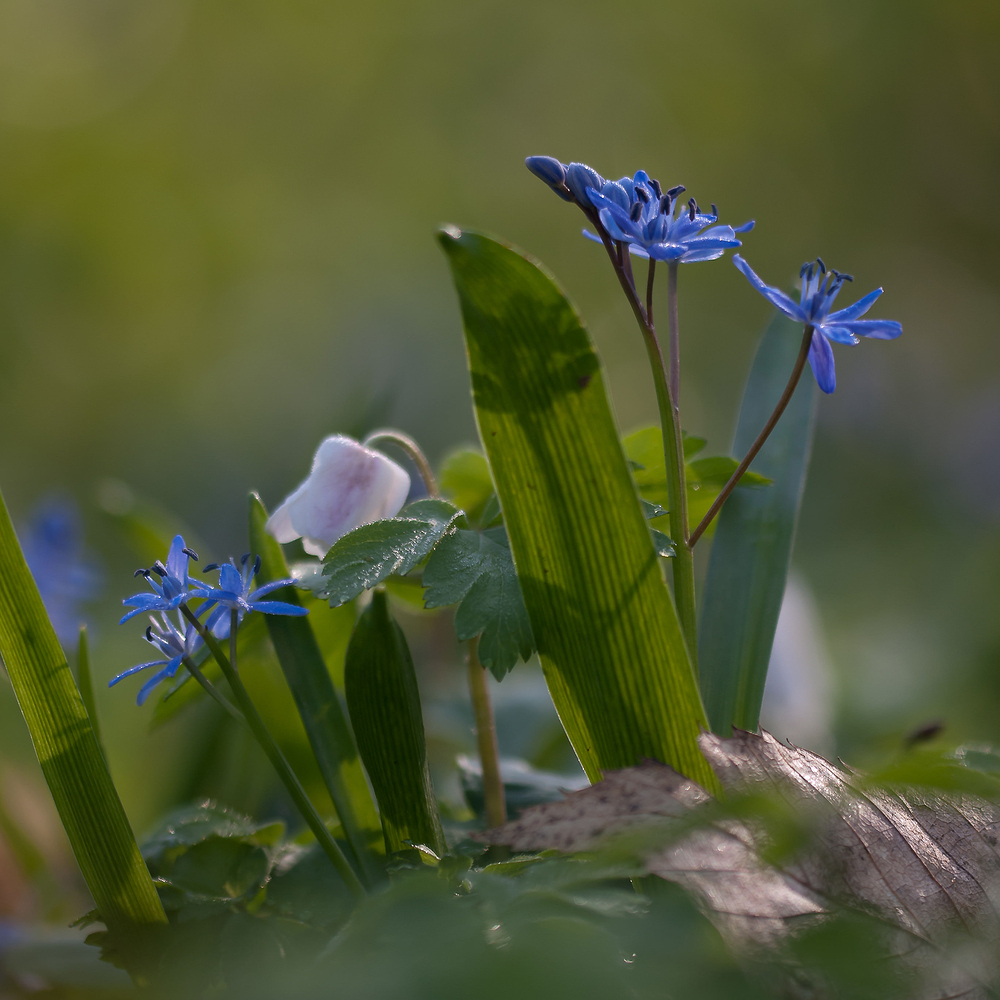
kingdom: Plantae
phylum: Tracheophyta
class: Liliopsida
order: Asparagales
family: Asparagaceae
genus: Scilla
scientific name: Scilla bifolia
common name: Alpine squill
